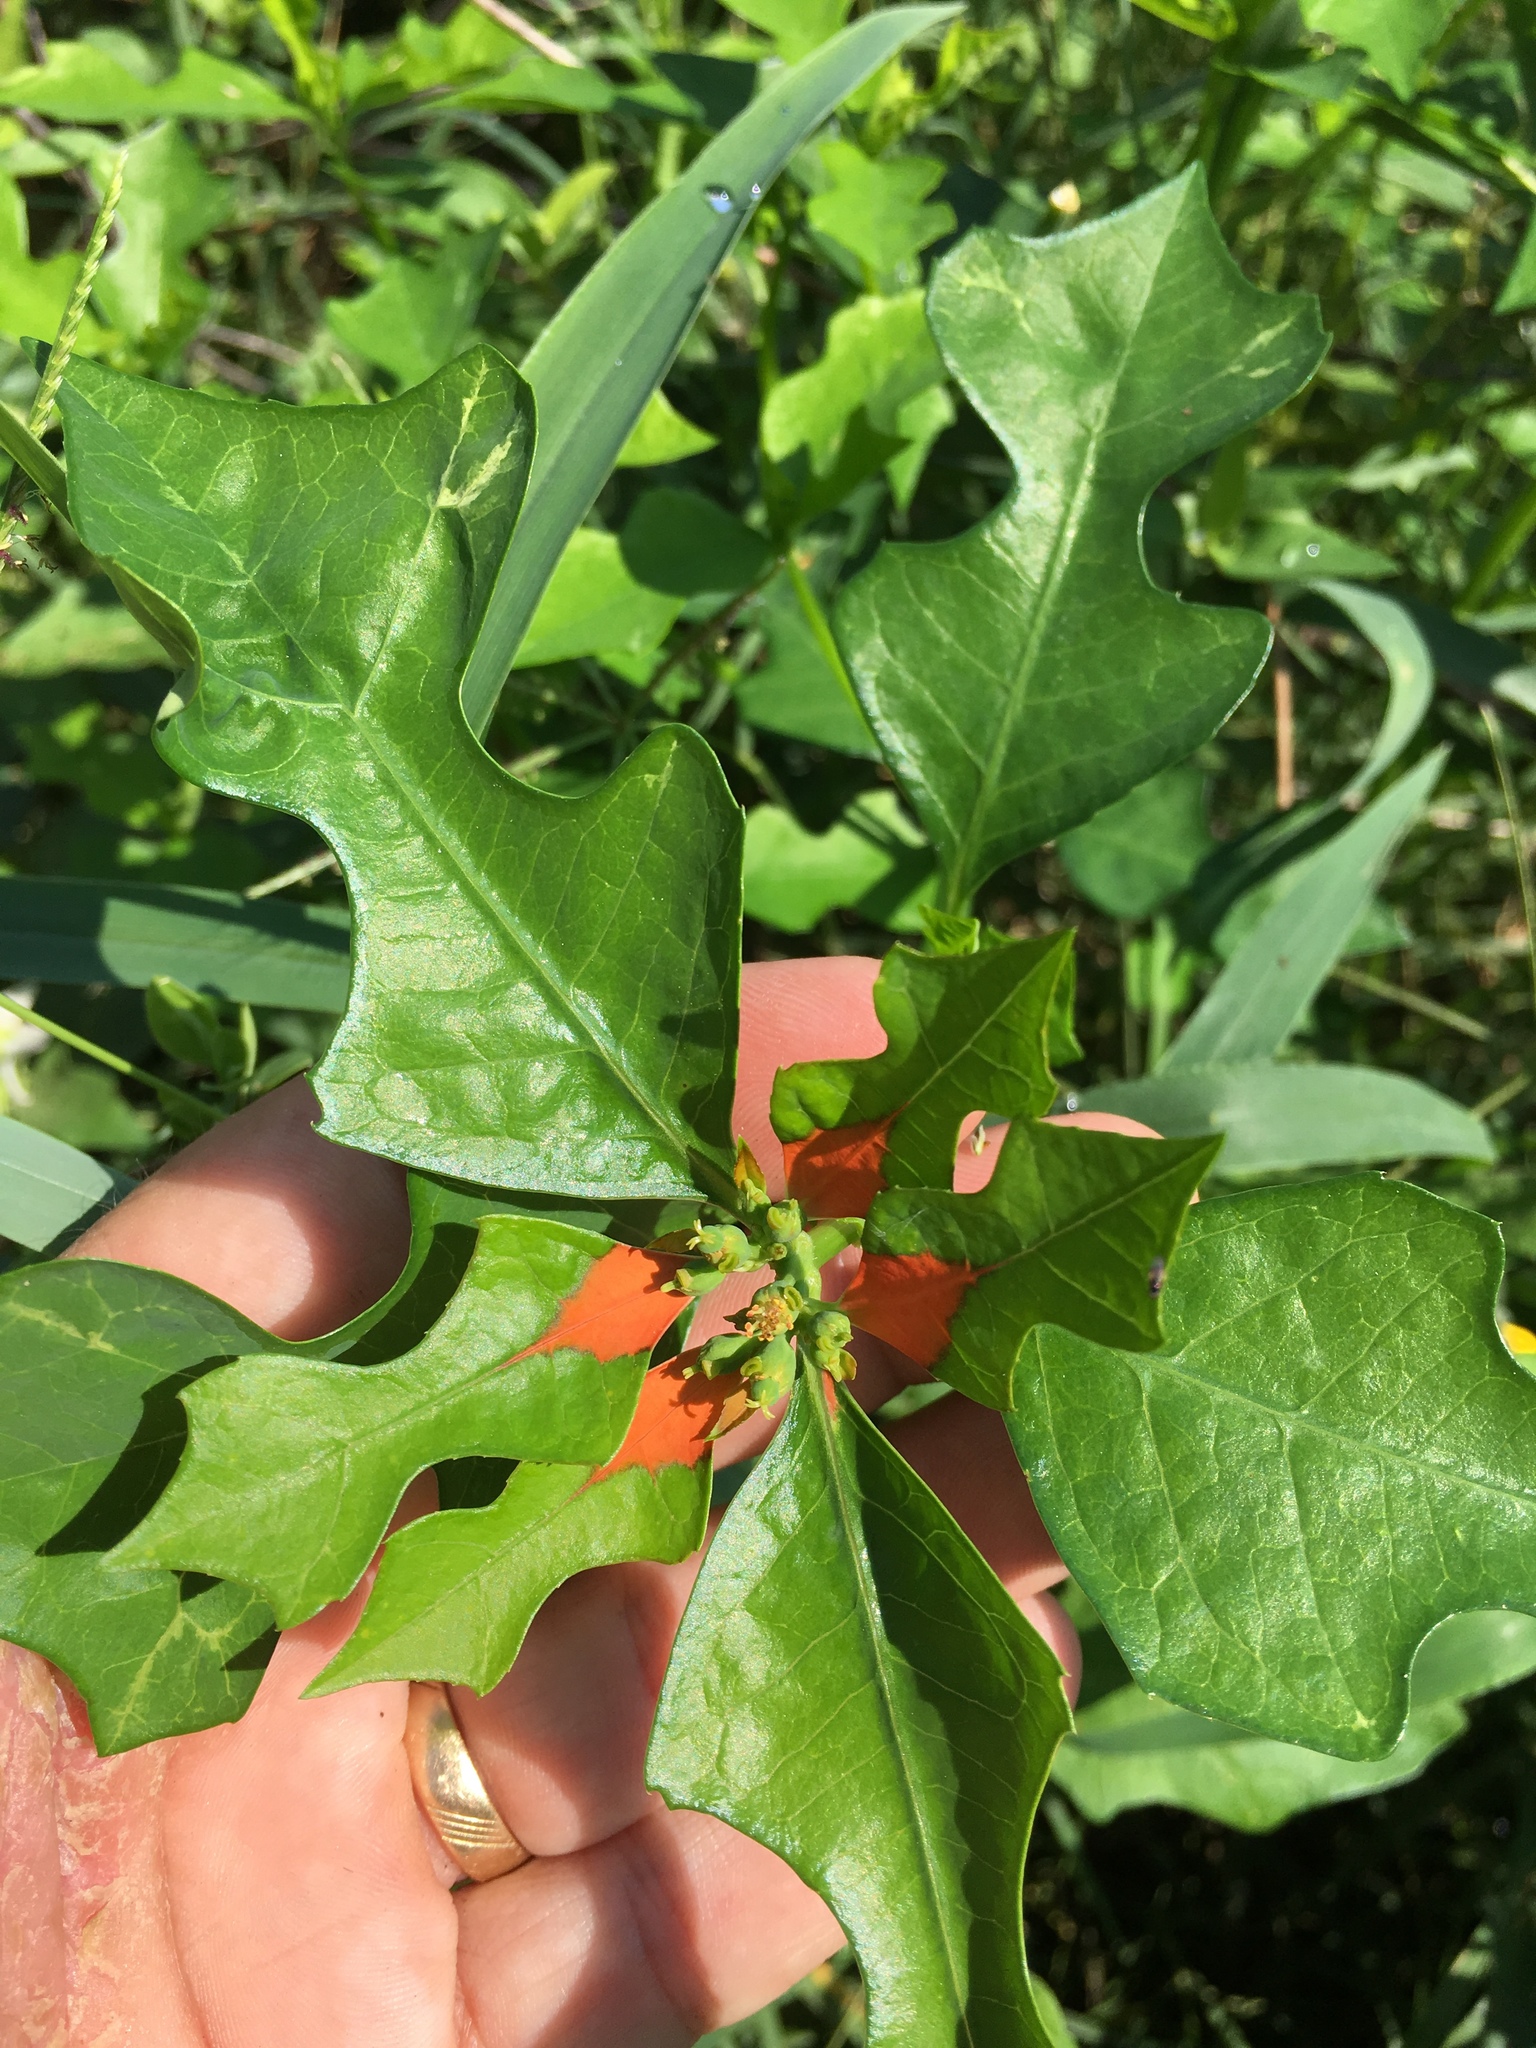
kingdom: Plantae
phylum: Tracheophyta
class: Magnoliopsida
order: Malpighiales
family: Euphorbiaceae
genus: Euphorbia
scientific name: Euphorbia heterophylla
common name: Mexican fireplant
